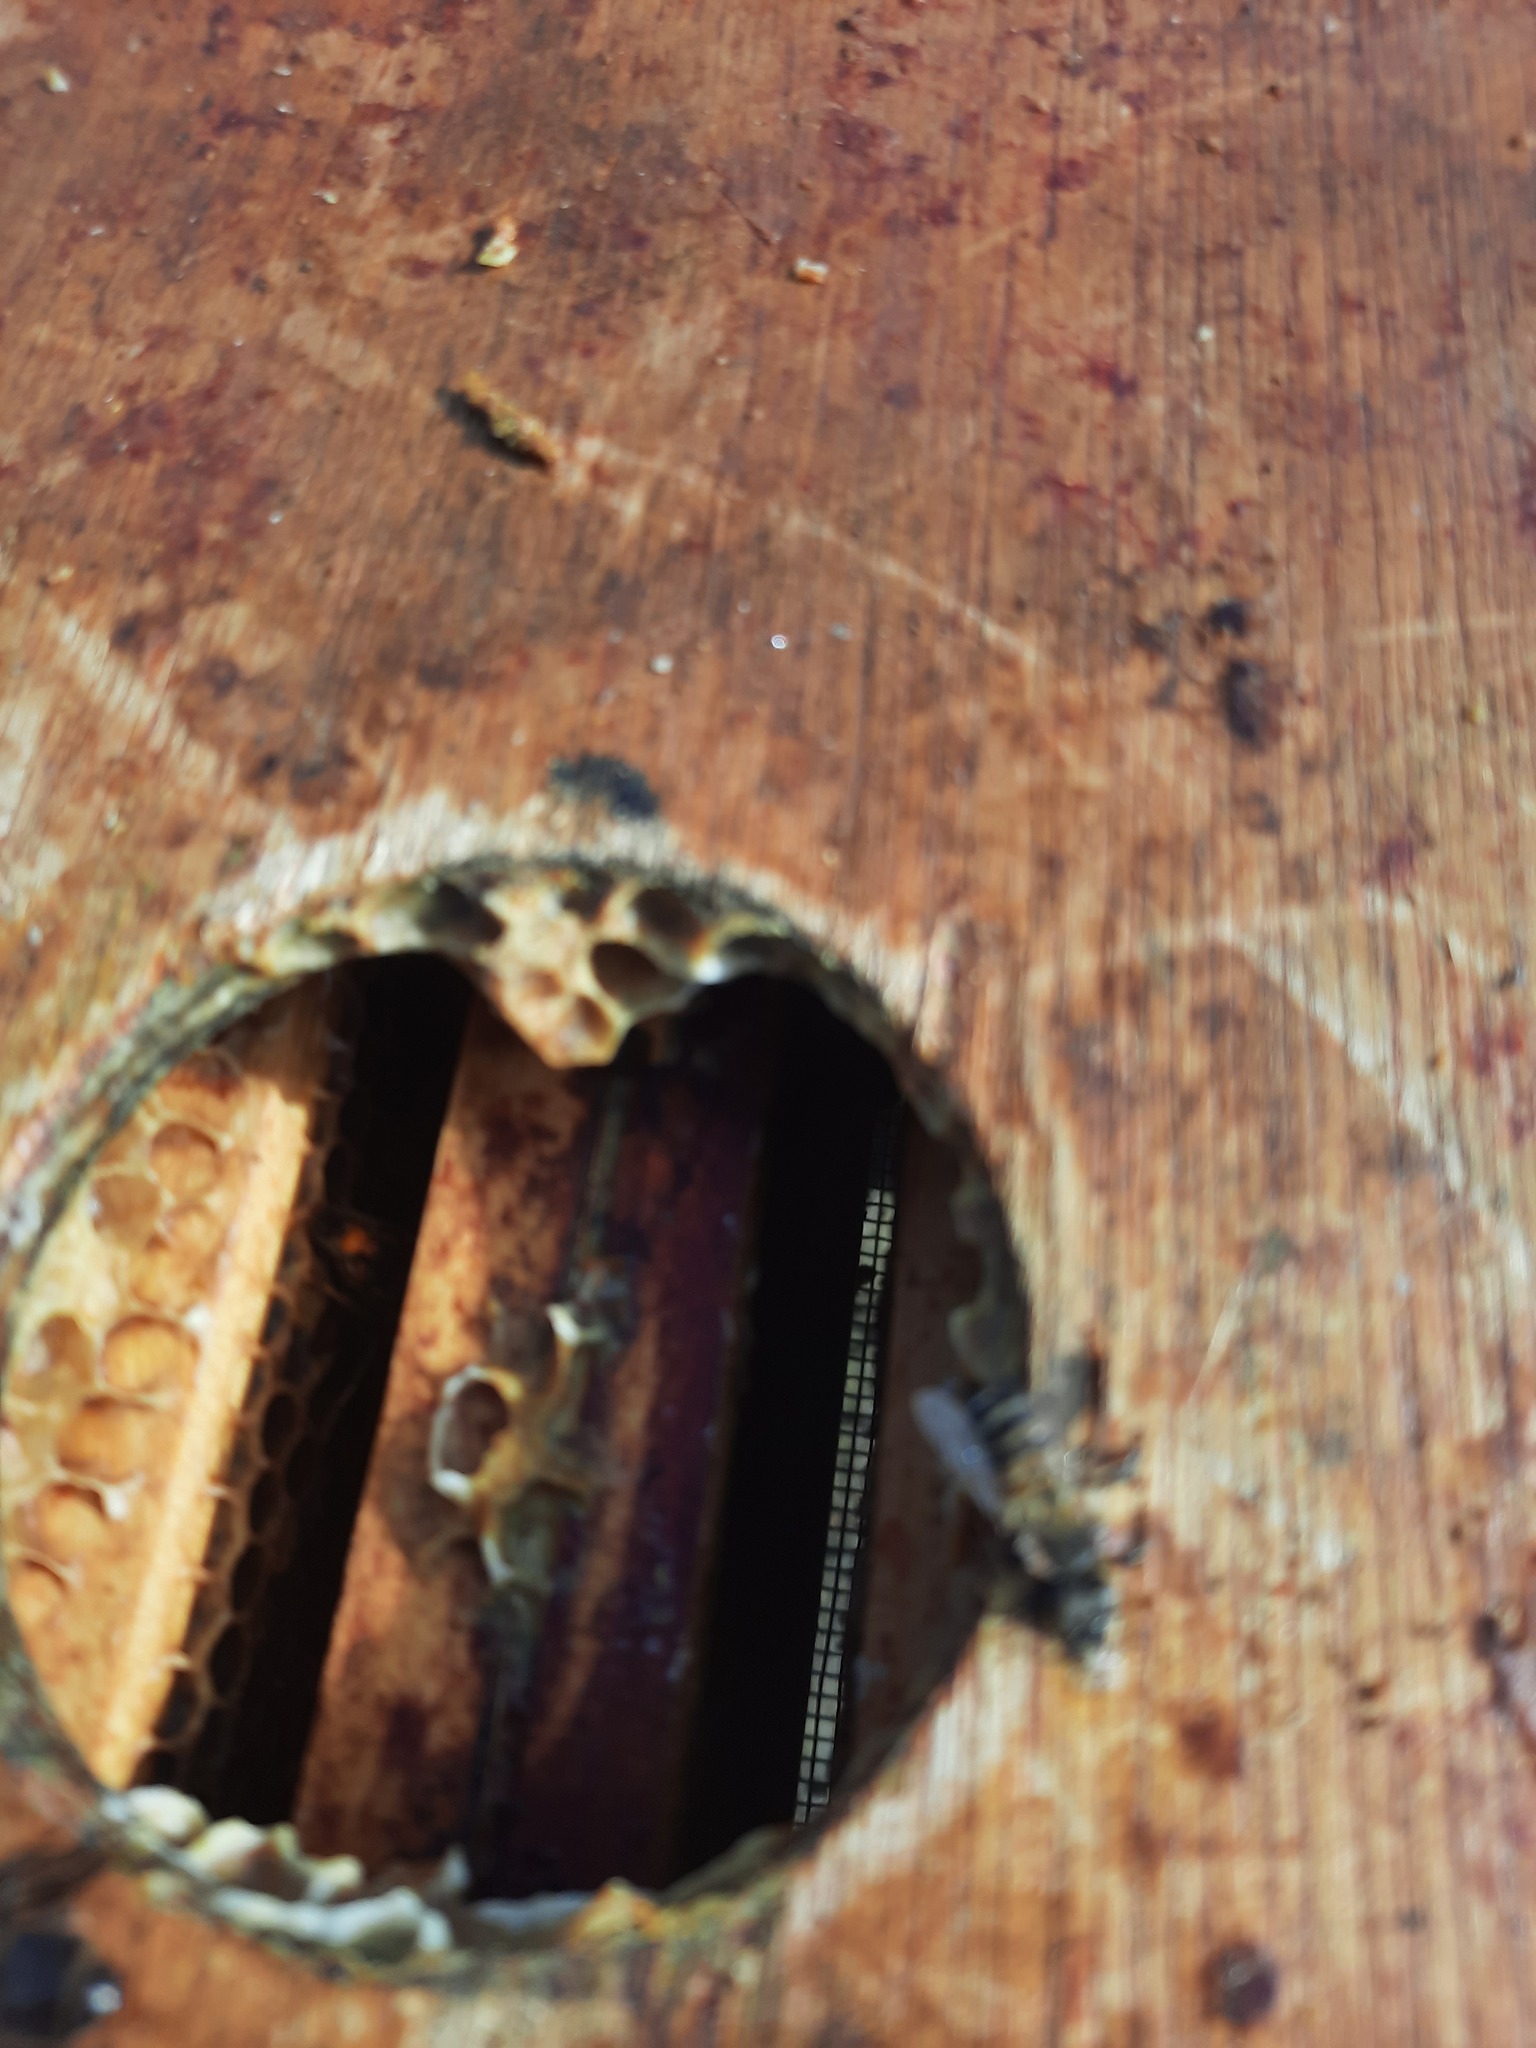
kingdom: Animalia
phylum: Arthropoda
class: Insecta
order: Hymenoptera
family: Vespidae
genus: Vespa
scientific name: Vespa velutina
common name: Asian hornet
